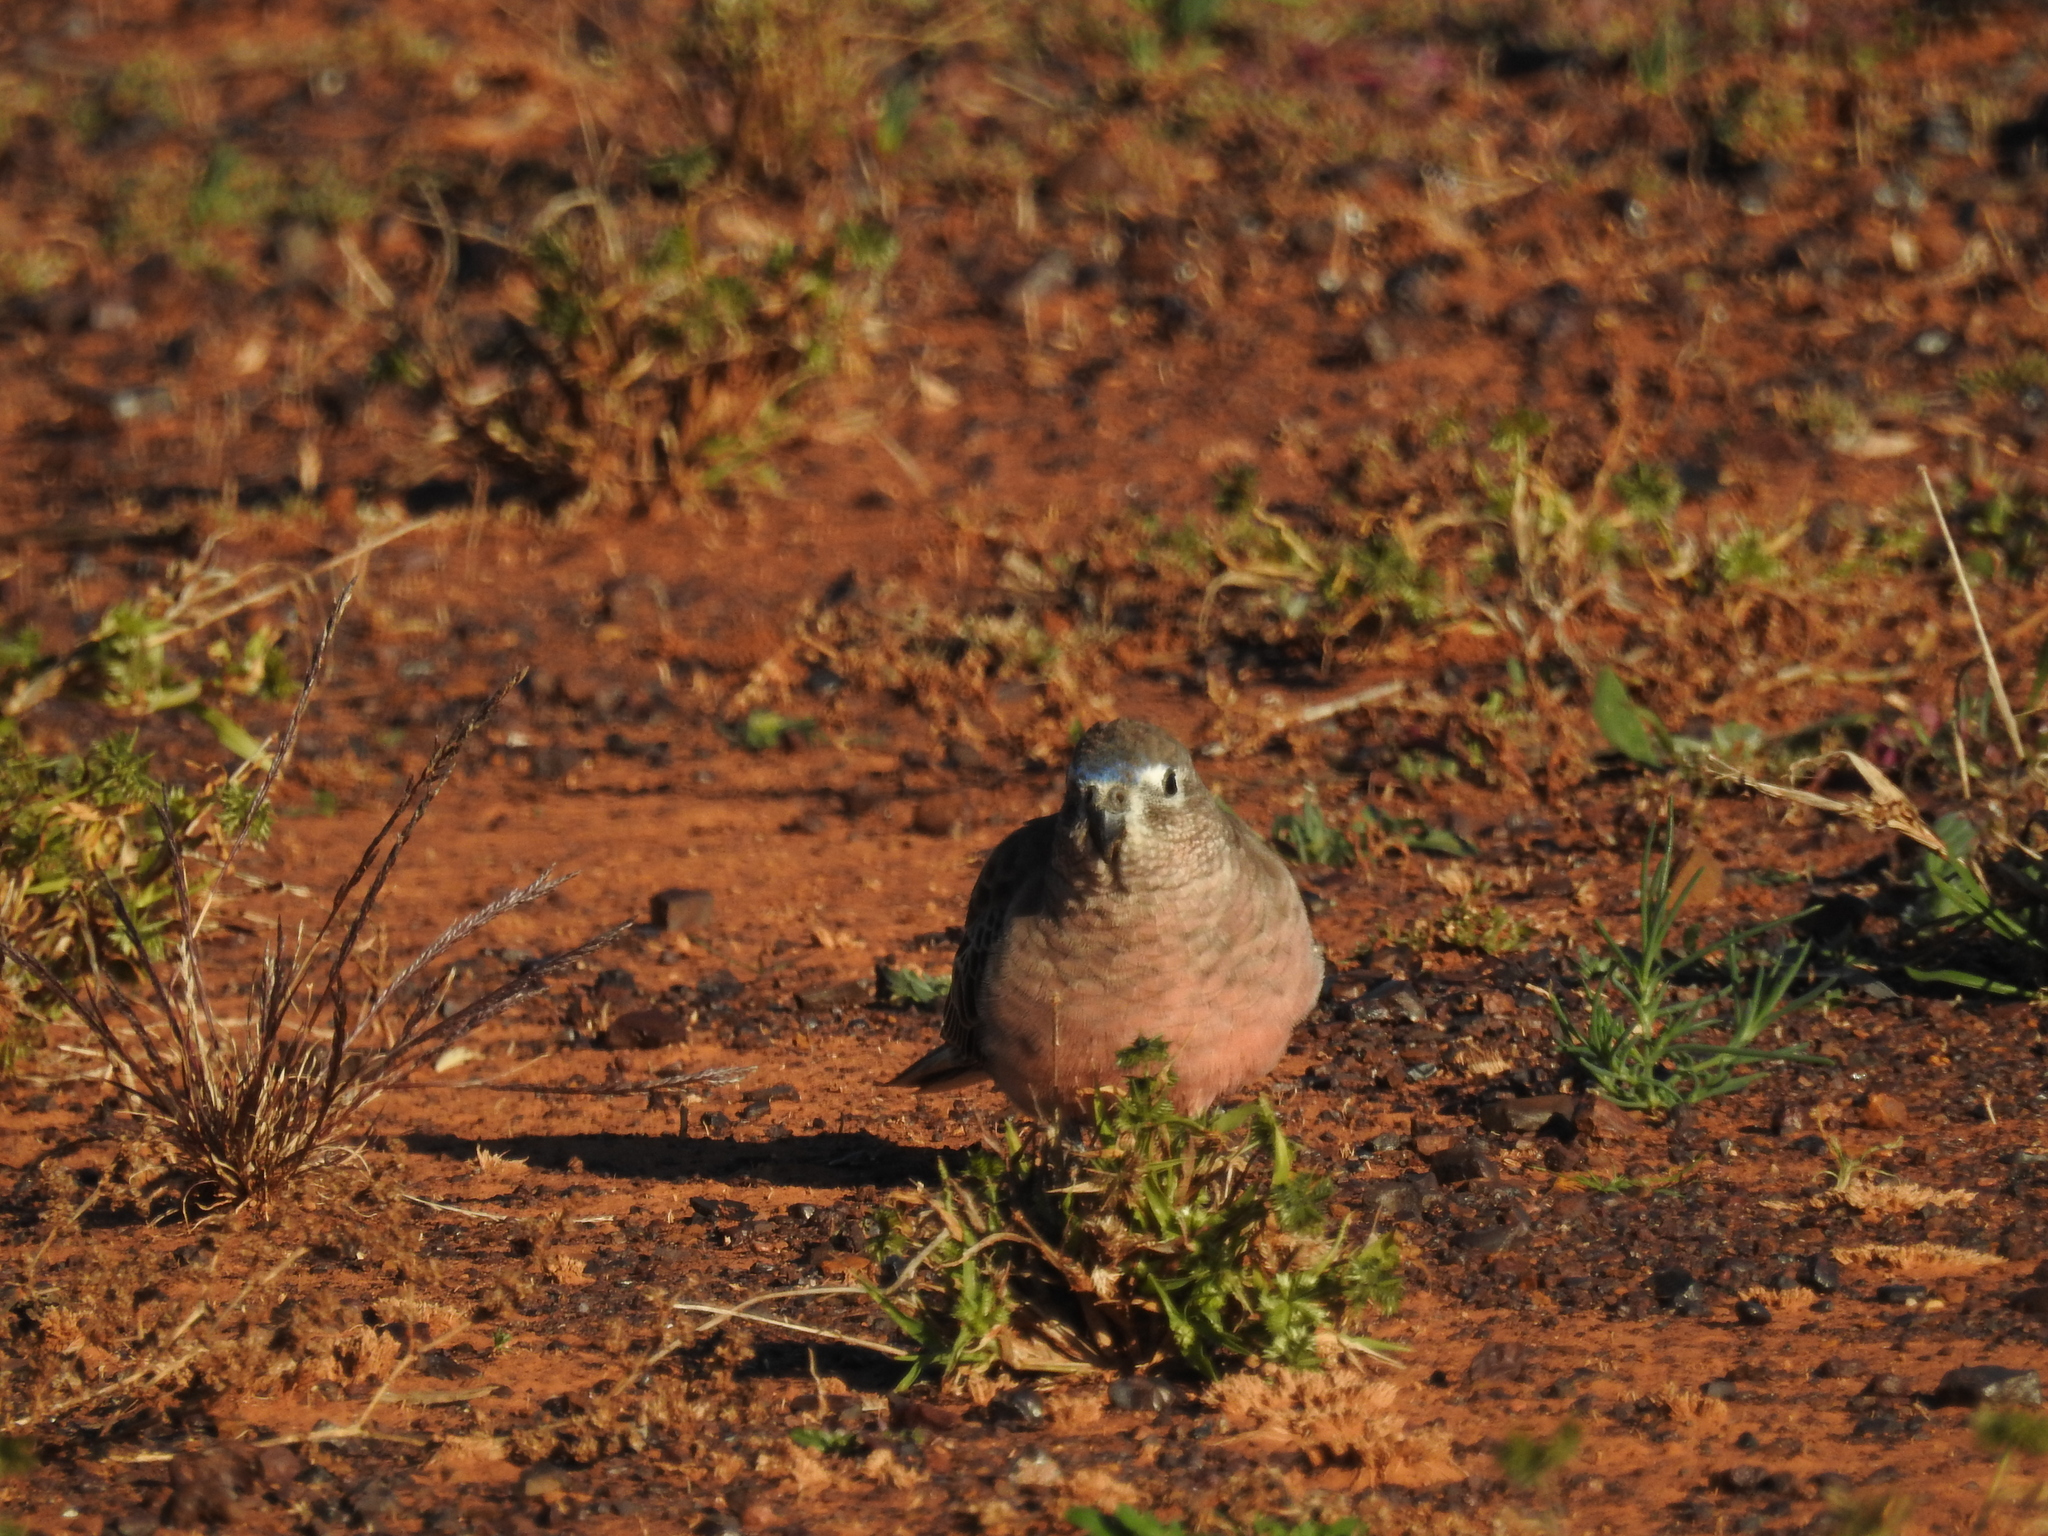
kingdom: Animalia
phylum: Chordata
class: Aves
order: Psittaciformes
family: Psittacidae
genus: Neopsephotus
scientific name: Neopsephotus bourkii
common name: Bourke's parrot
